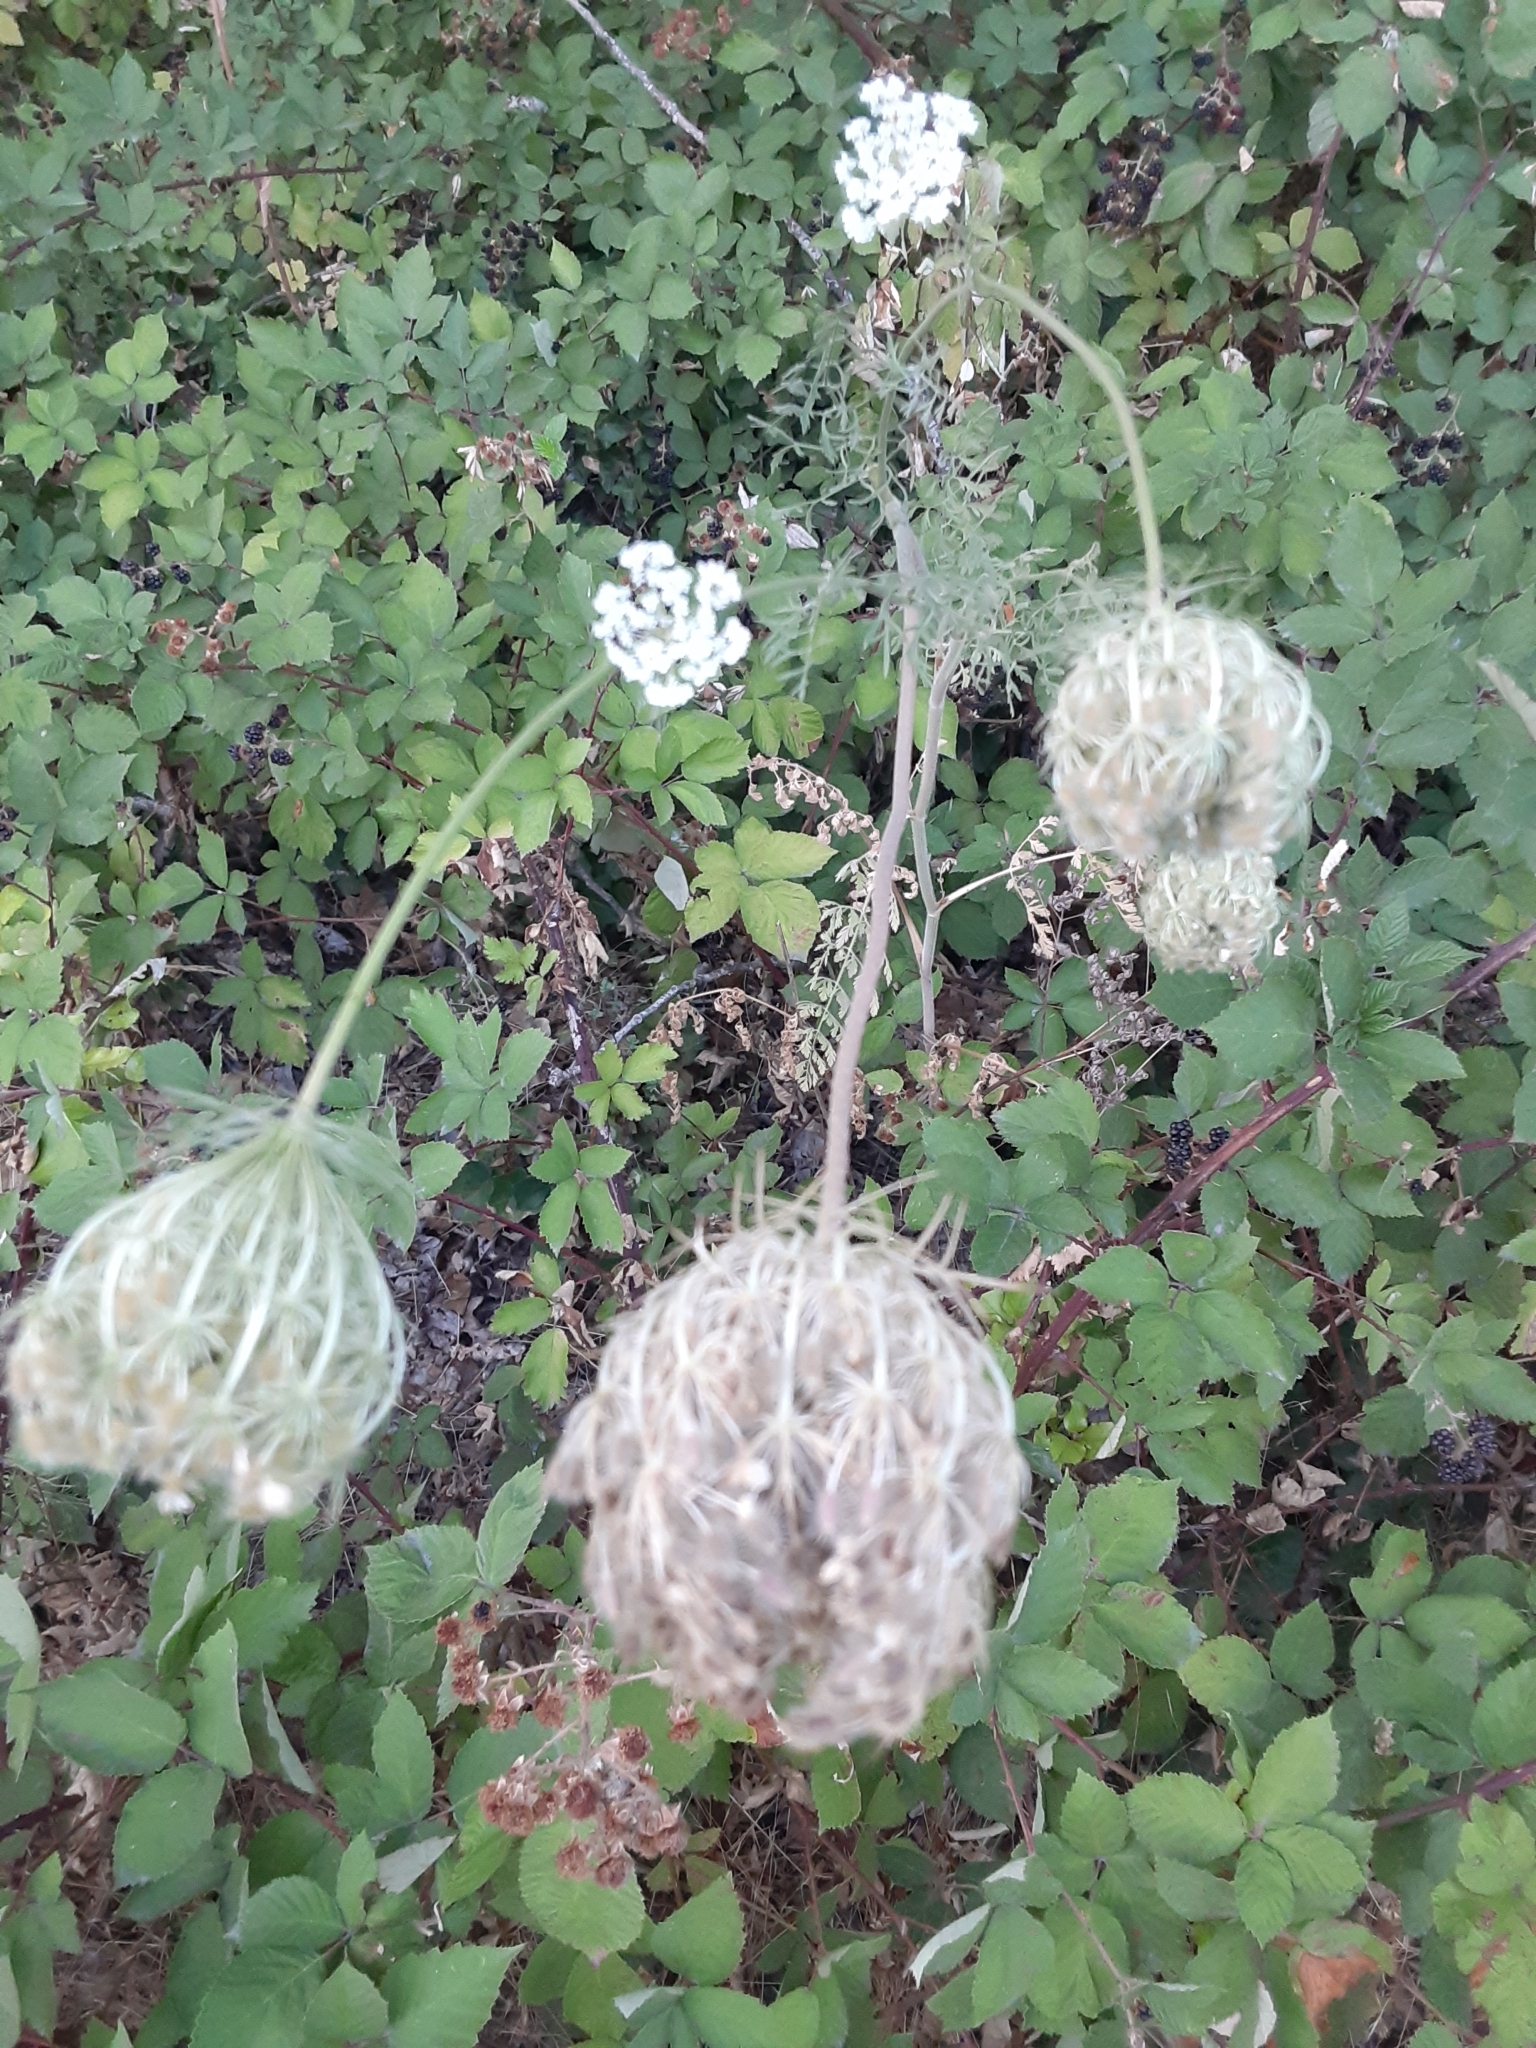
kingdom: Plantae
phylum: Tracheophyta
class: Magnoliopsida
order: Apiales
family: Apiaceae
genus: Daucus
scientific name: Daucus carota
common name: Wild carrot
